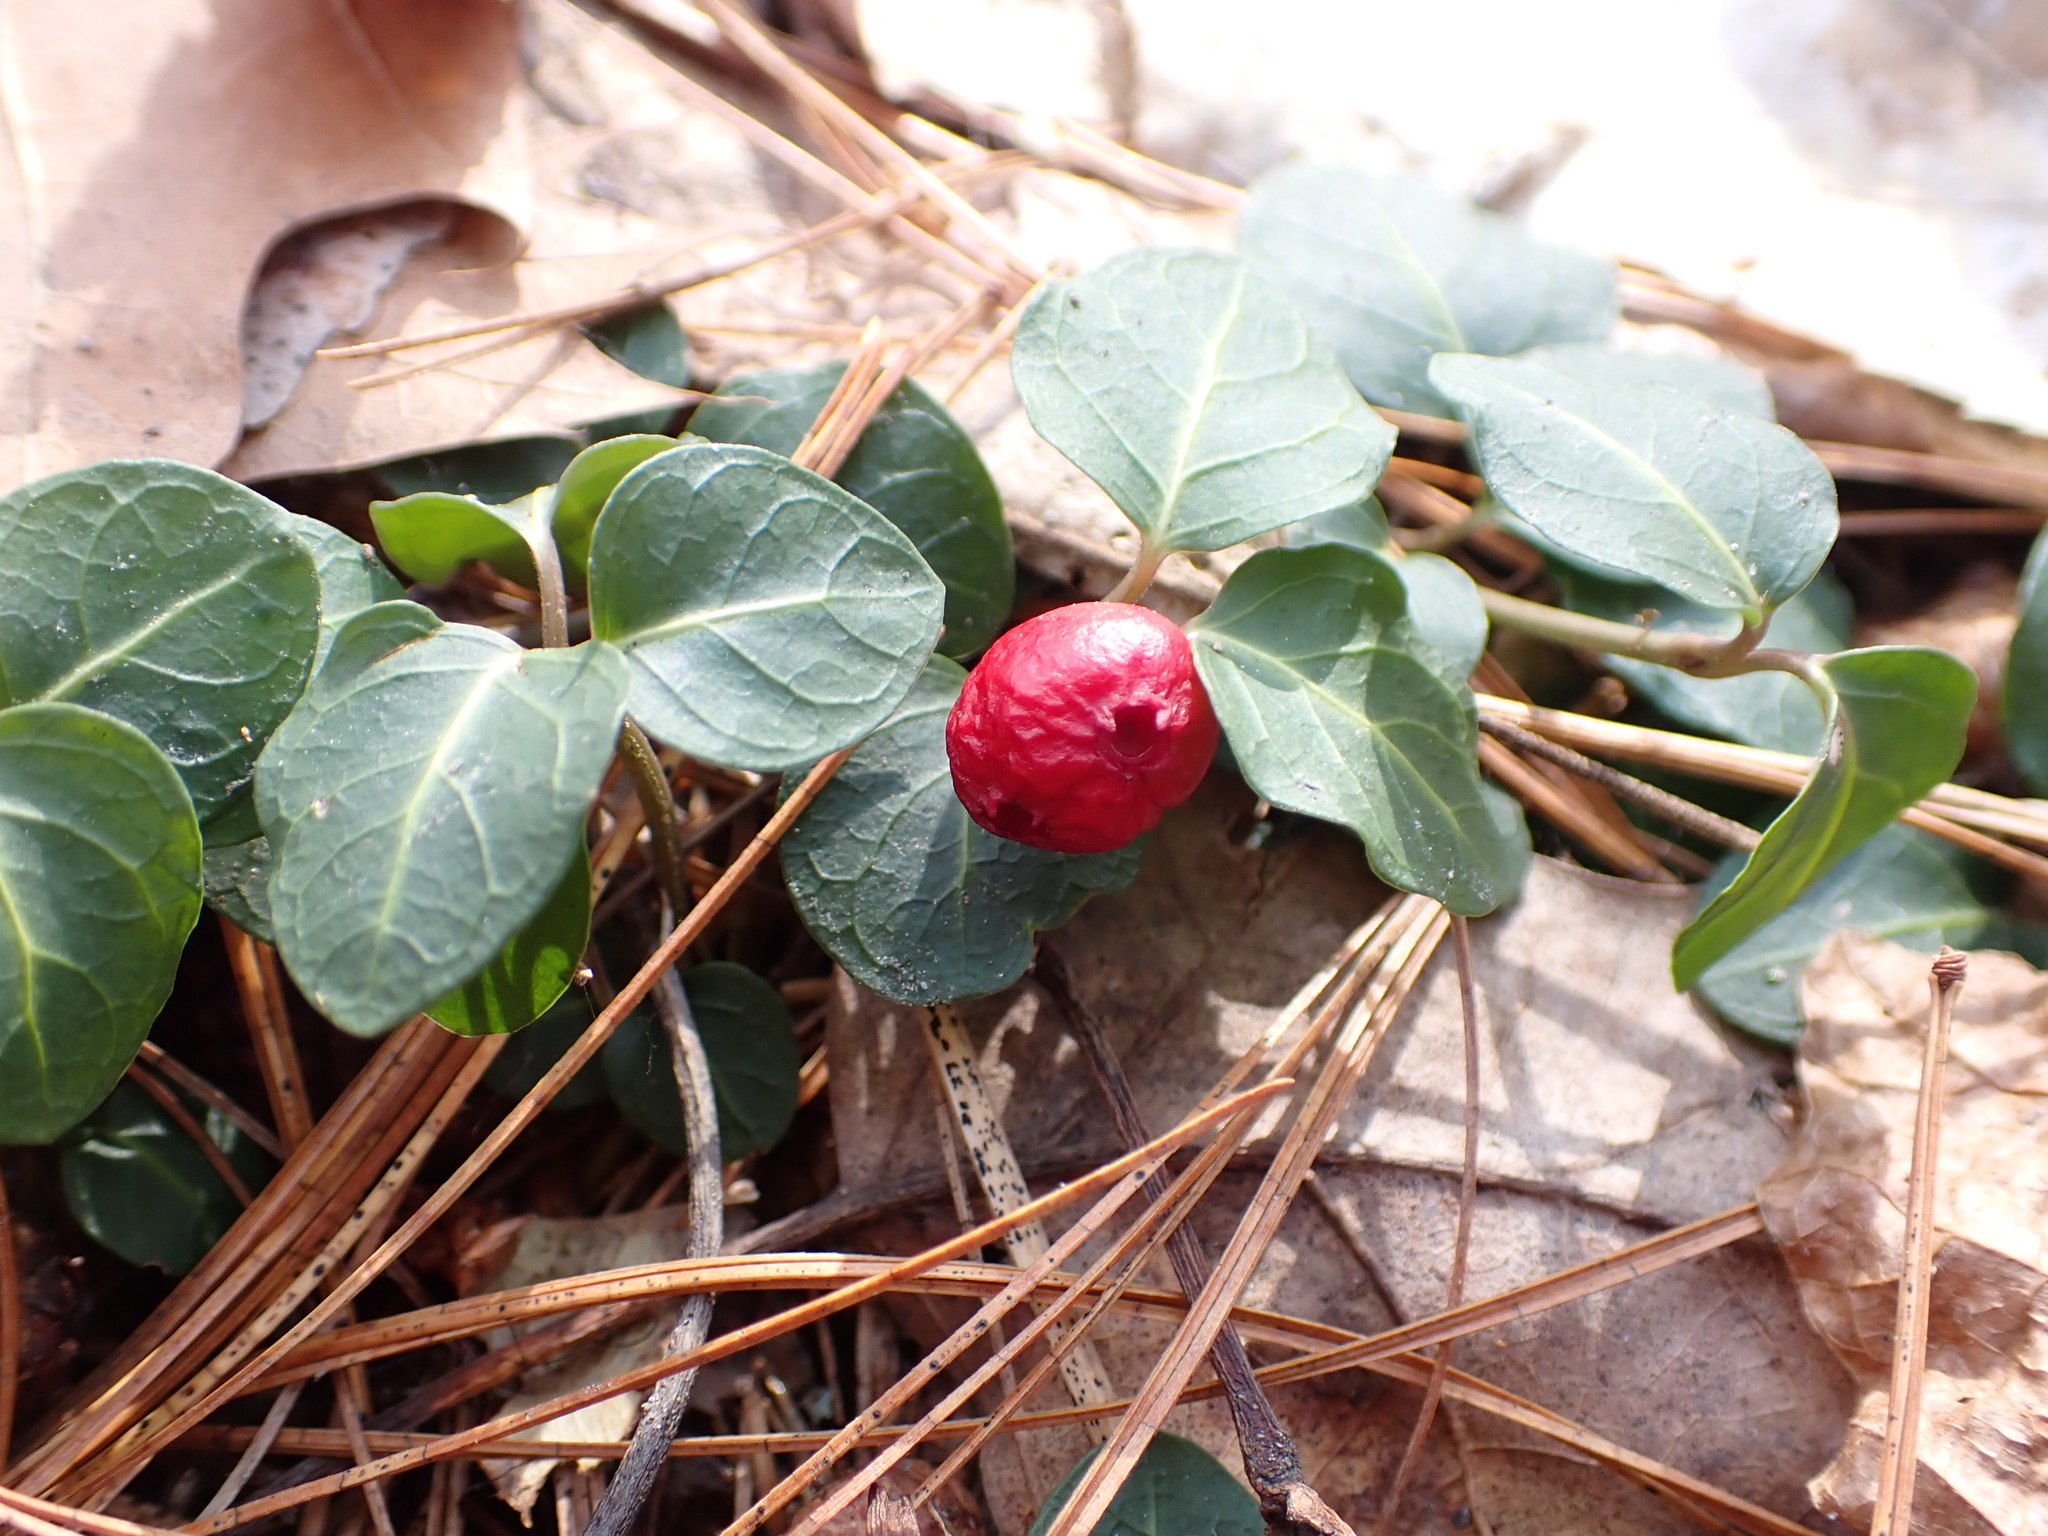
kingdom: Plantae
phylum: Tracheophyta
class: Magnoliopsida
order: Gentianales
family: Rubiaceae
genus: Mitchella
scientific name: Mitchella repens
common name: Partridge-berry
